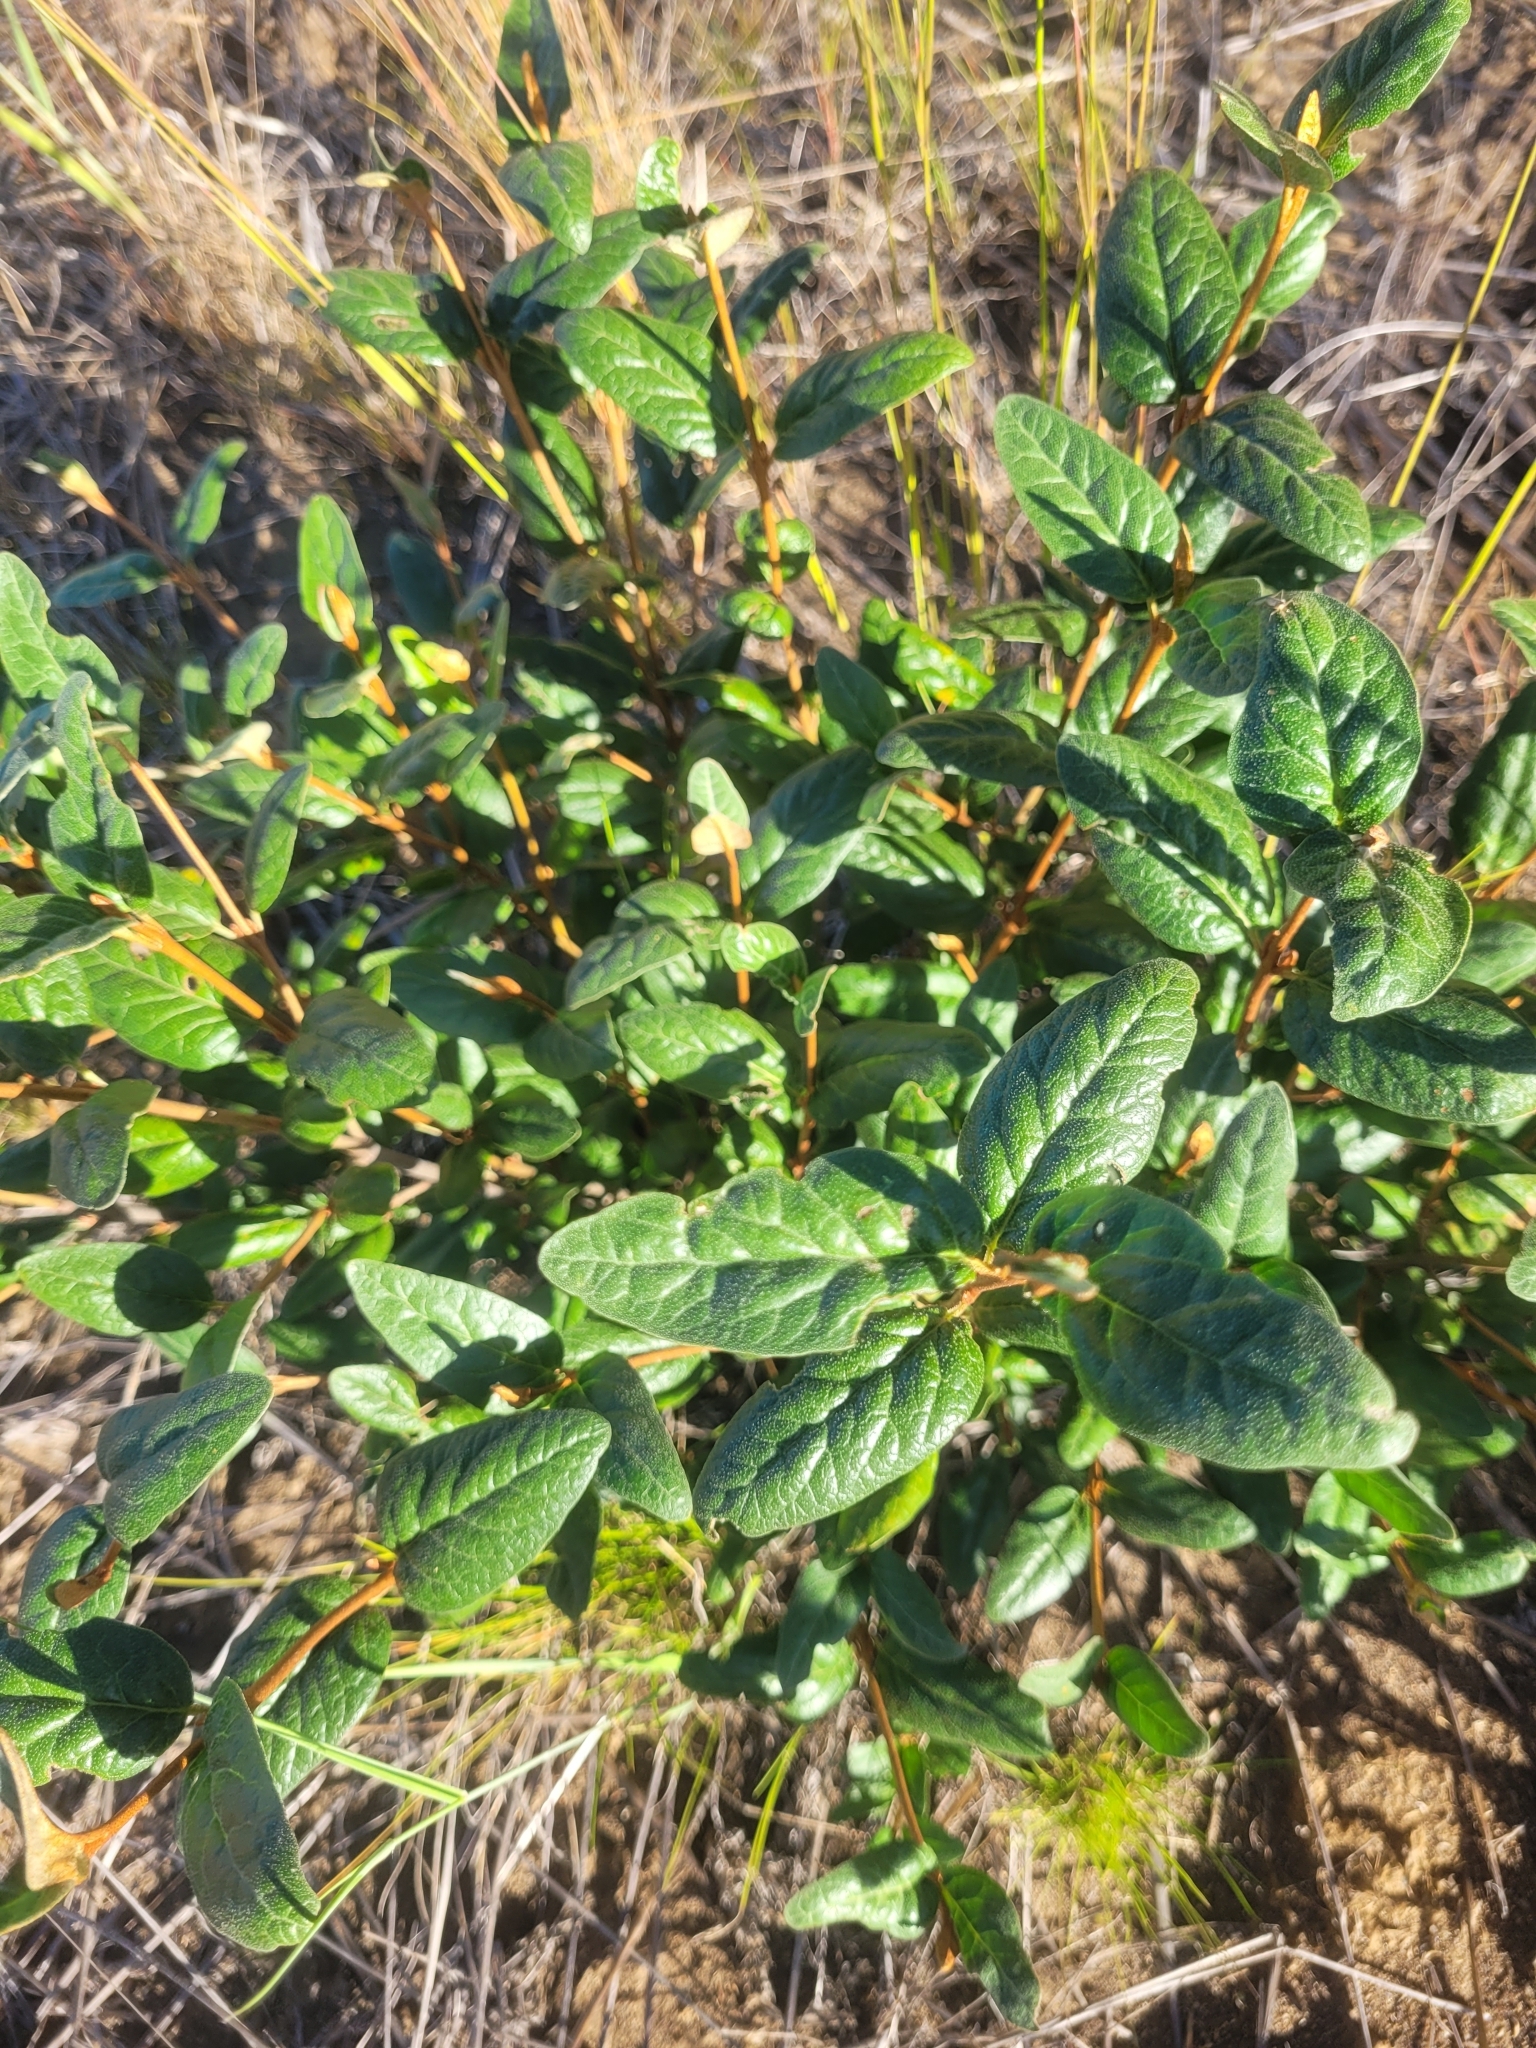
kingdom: Plantae
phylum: Tracheophyta
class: Magnoliopsida
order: Rosales
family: Elaeagnaceae
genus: Shepherdia
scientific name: Shepherdia canadensis
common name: Soapberry
